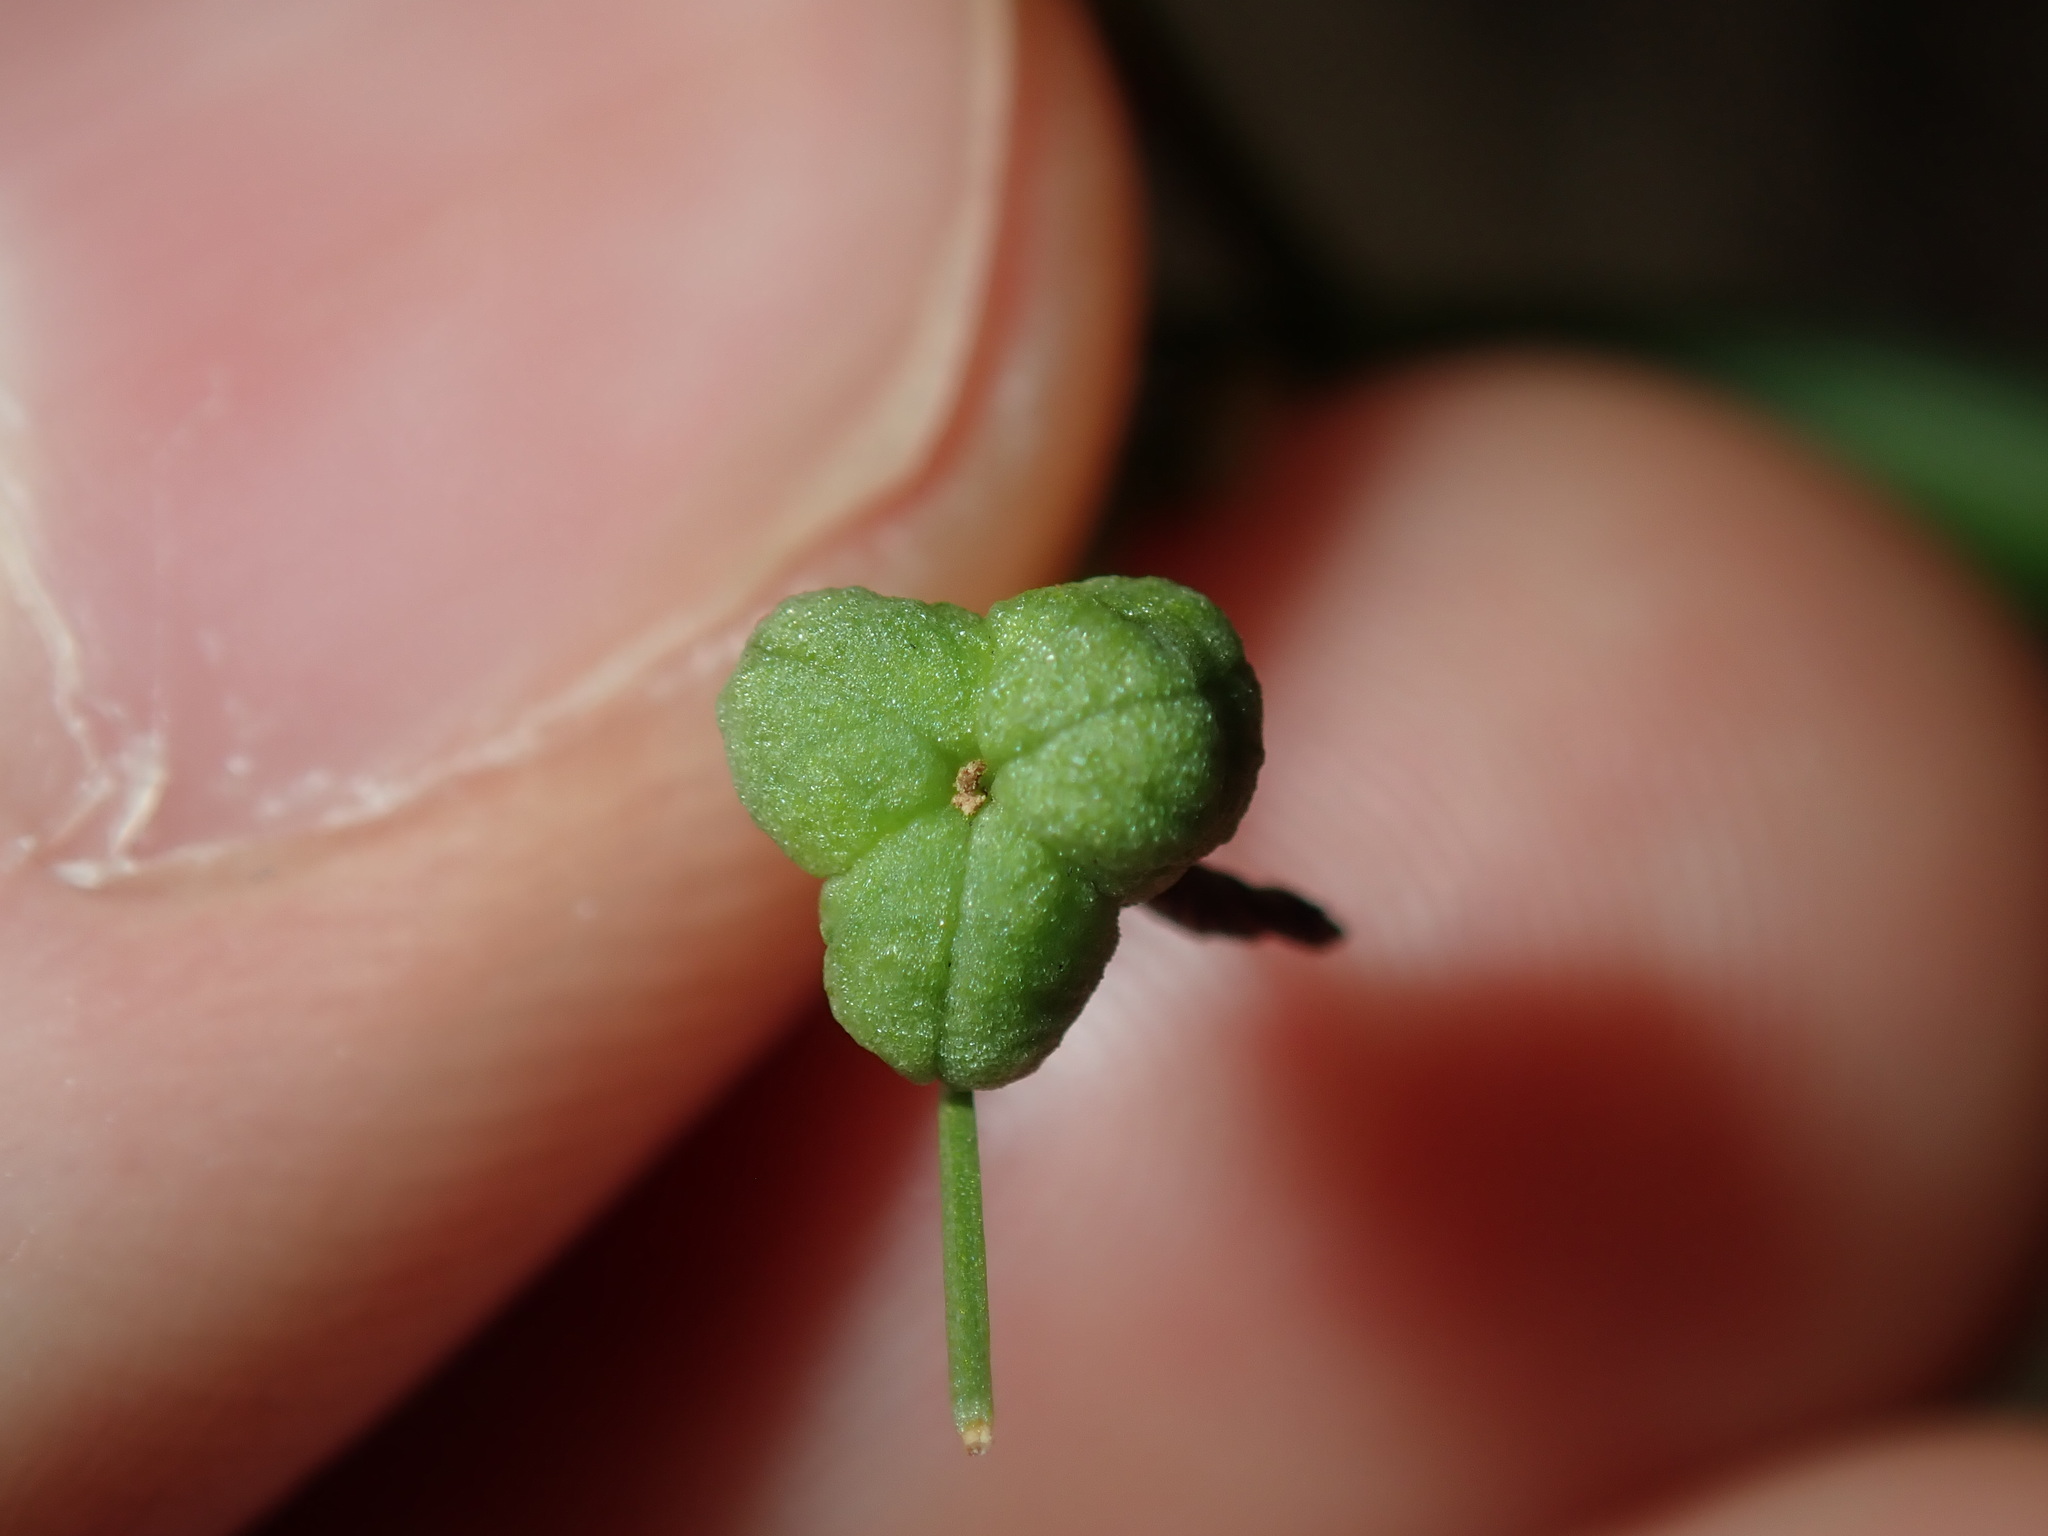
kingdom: Plantae
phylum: Tracheophyta
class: Liliopsida
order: Asparagales
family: Asphodelaceae
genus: Caesia
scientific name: Caesia parviflora
